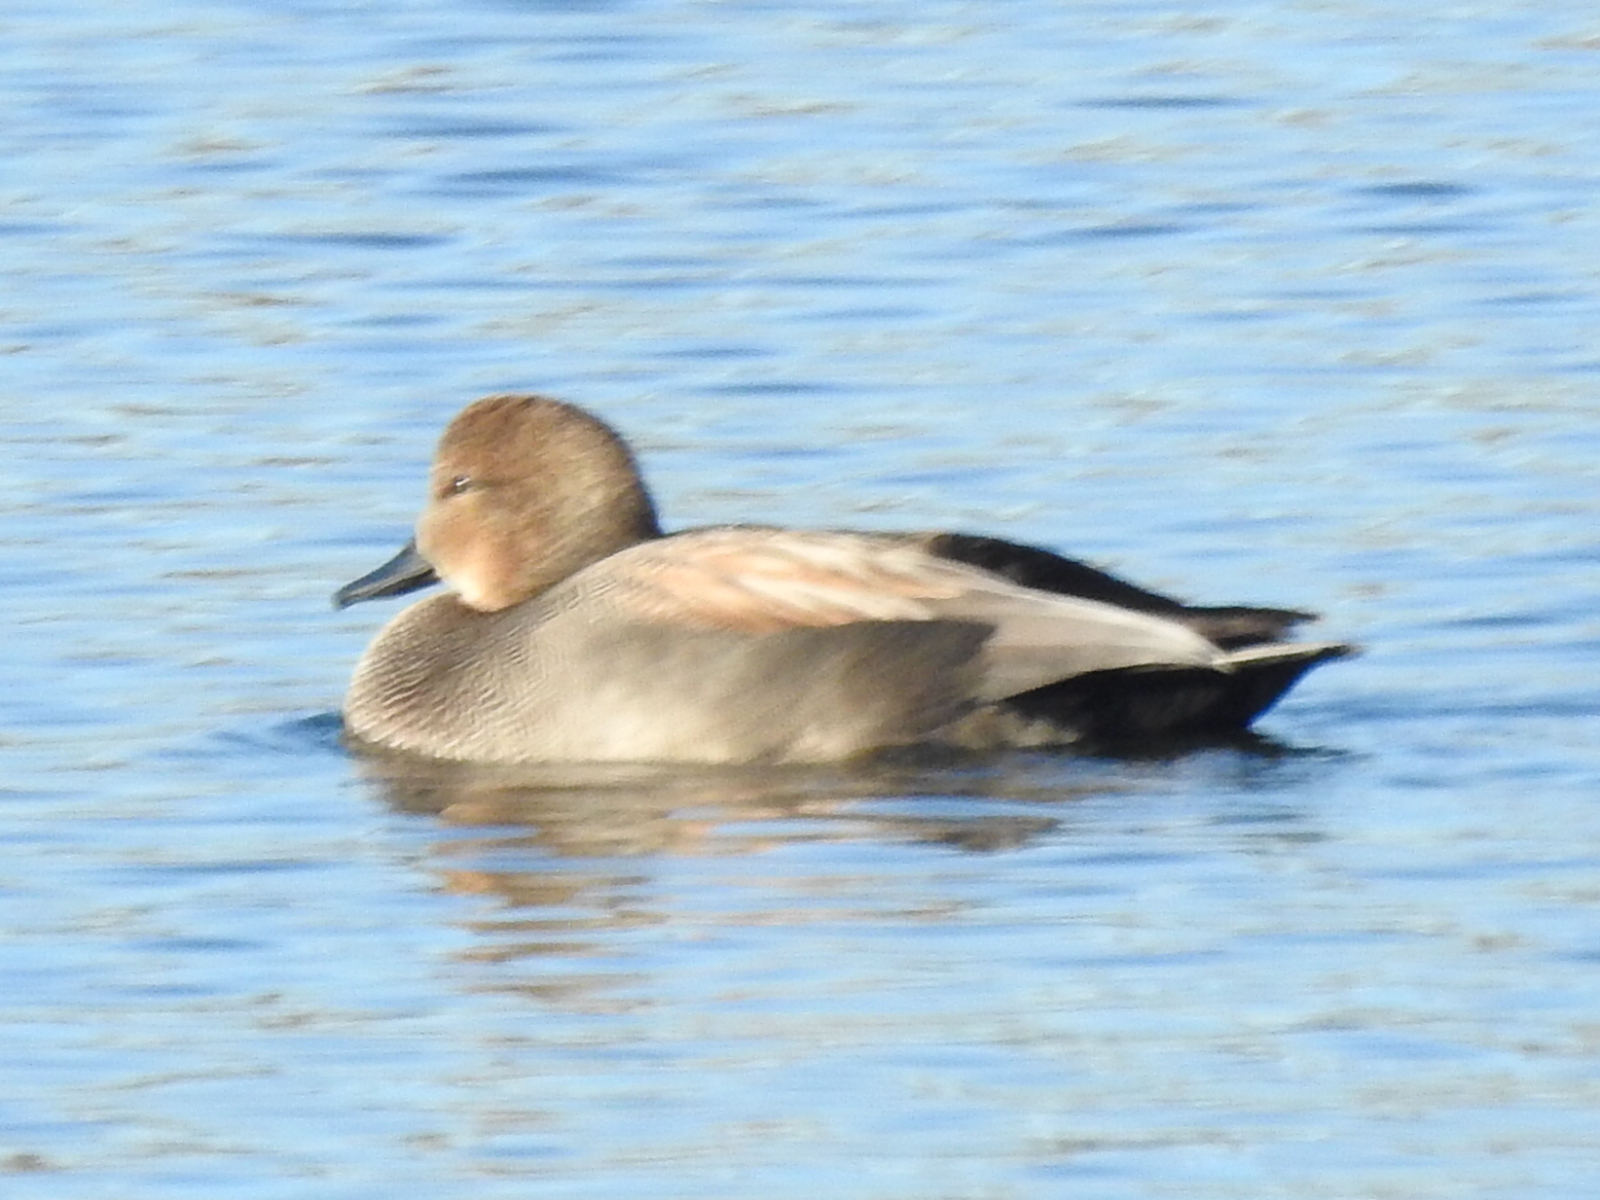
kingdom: Animalia
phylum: Chordata
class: Aves
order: Anseriformes
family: Anatidae
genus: Mareca
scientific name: Mareca strepera
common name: Gadwall
